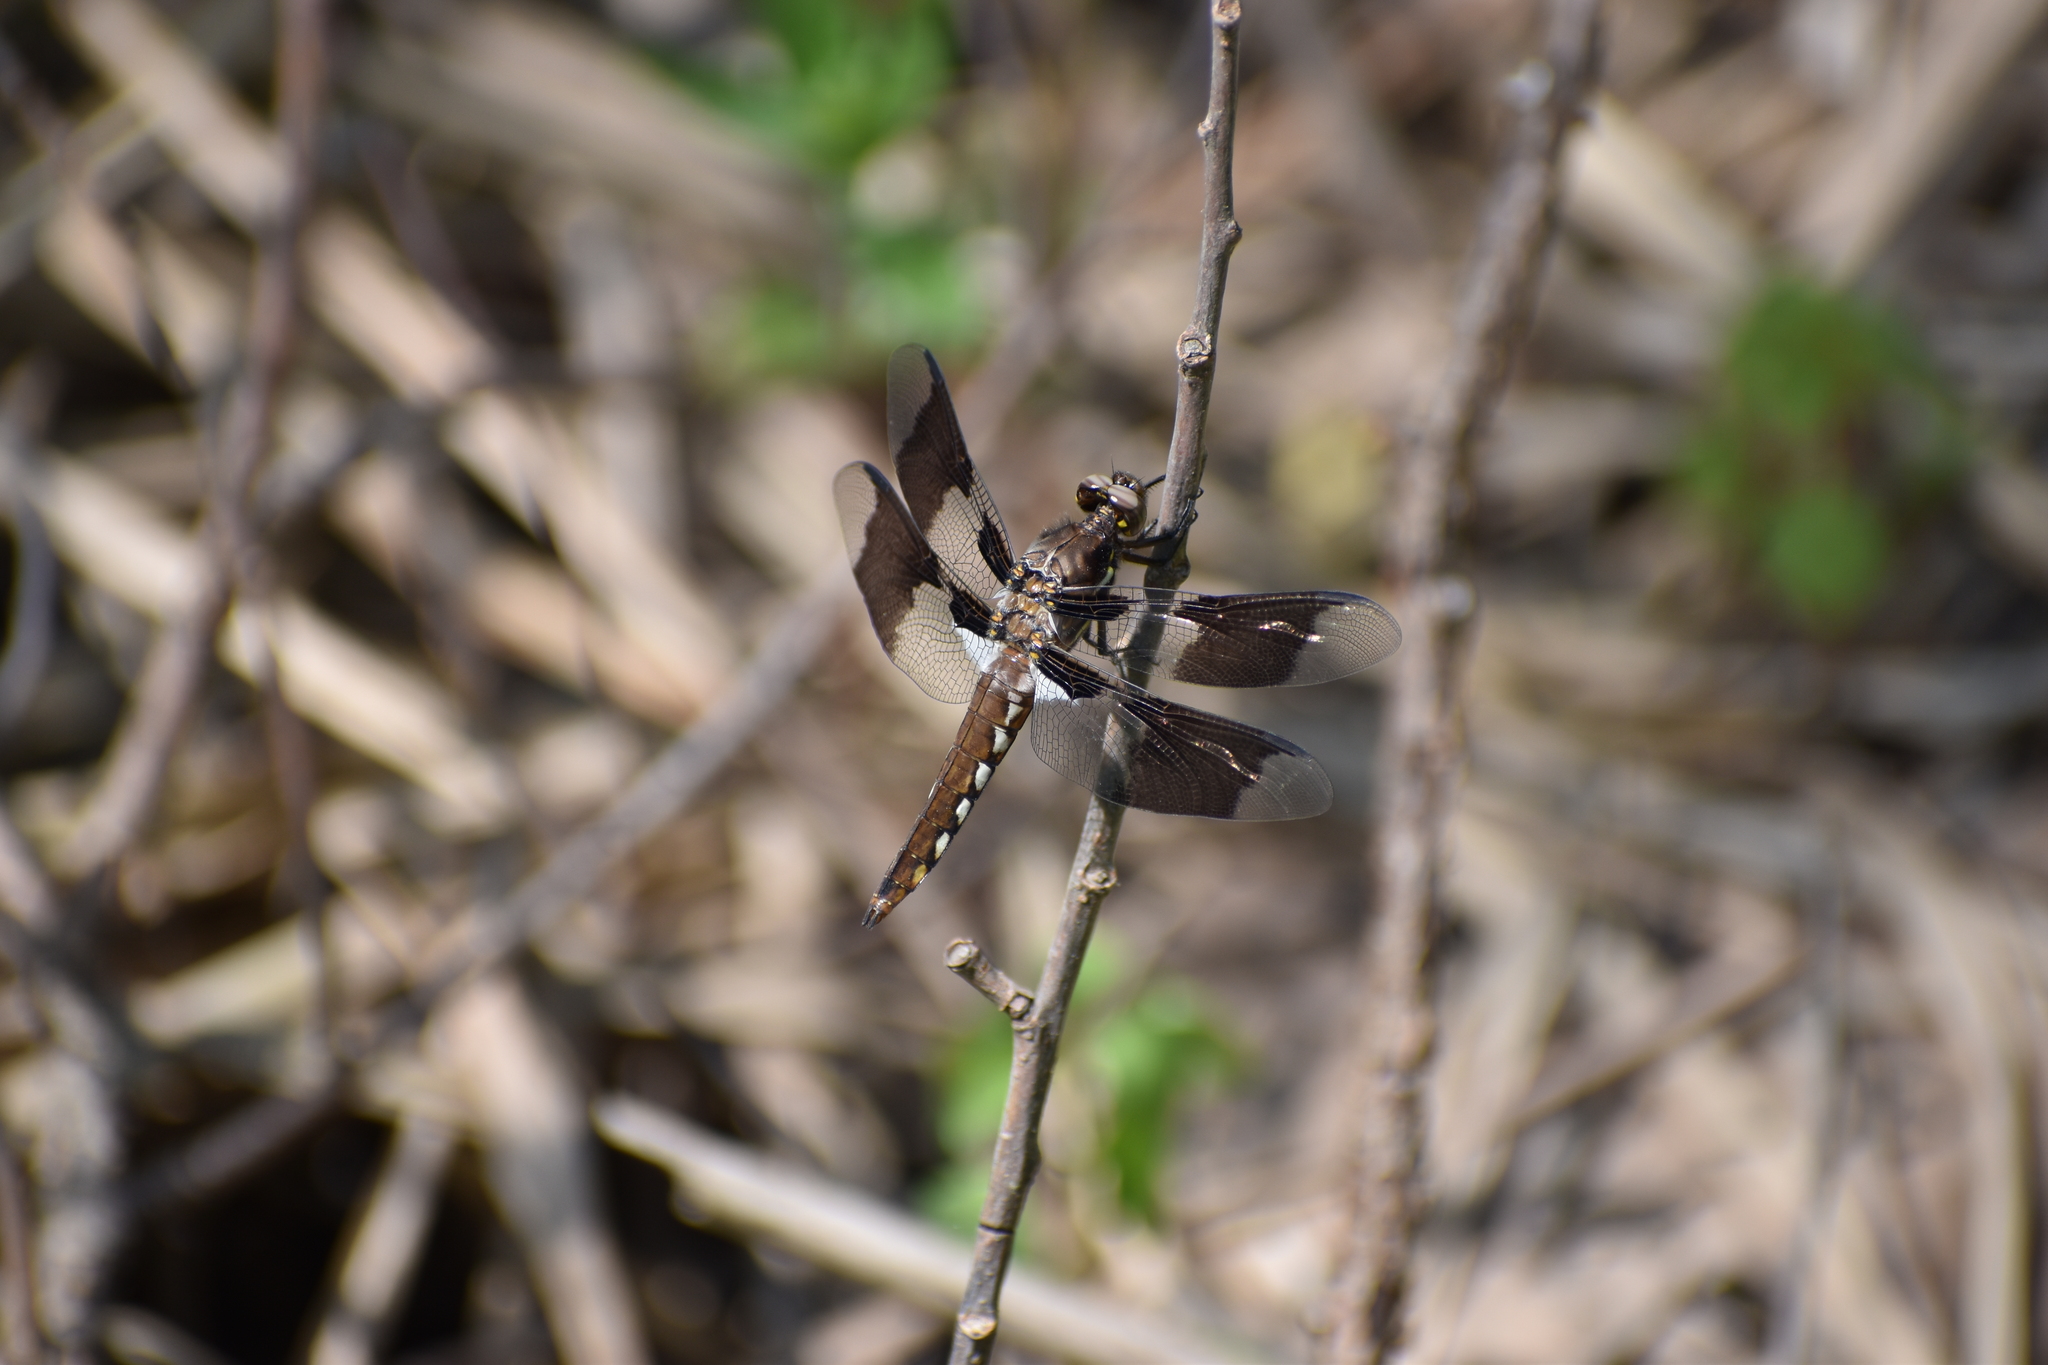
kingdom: Animalia
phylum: Arthropoda
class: Insecta
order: Odonata
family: Libellulidae
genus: Plathemis
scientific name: Plathemis lydia
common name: Common whitetail
